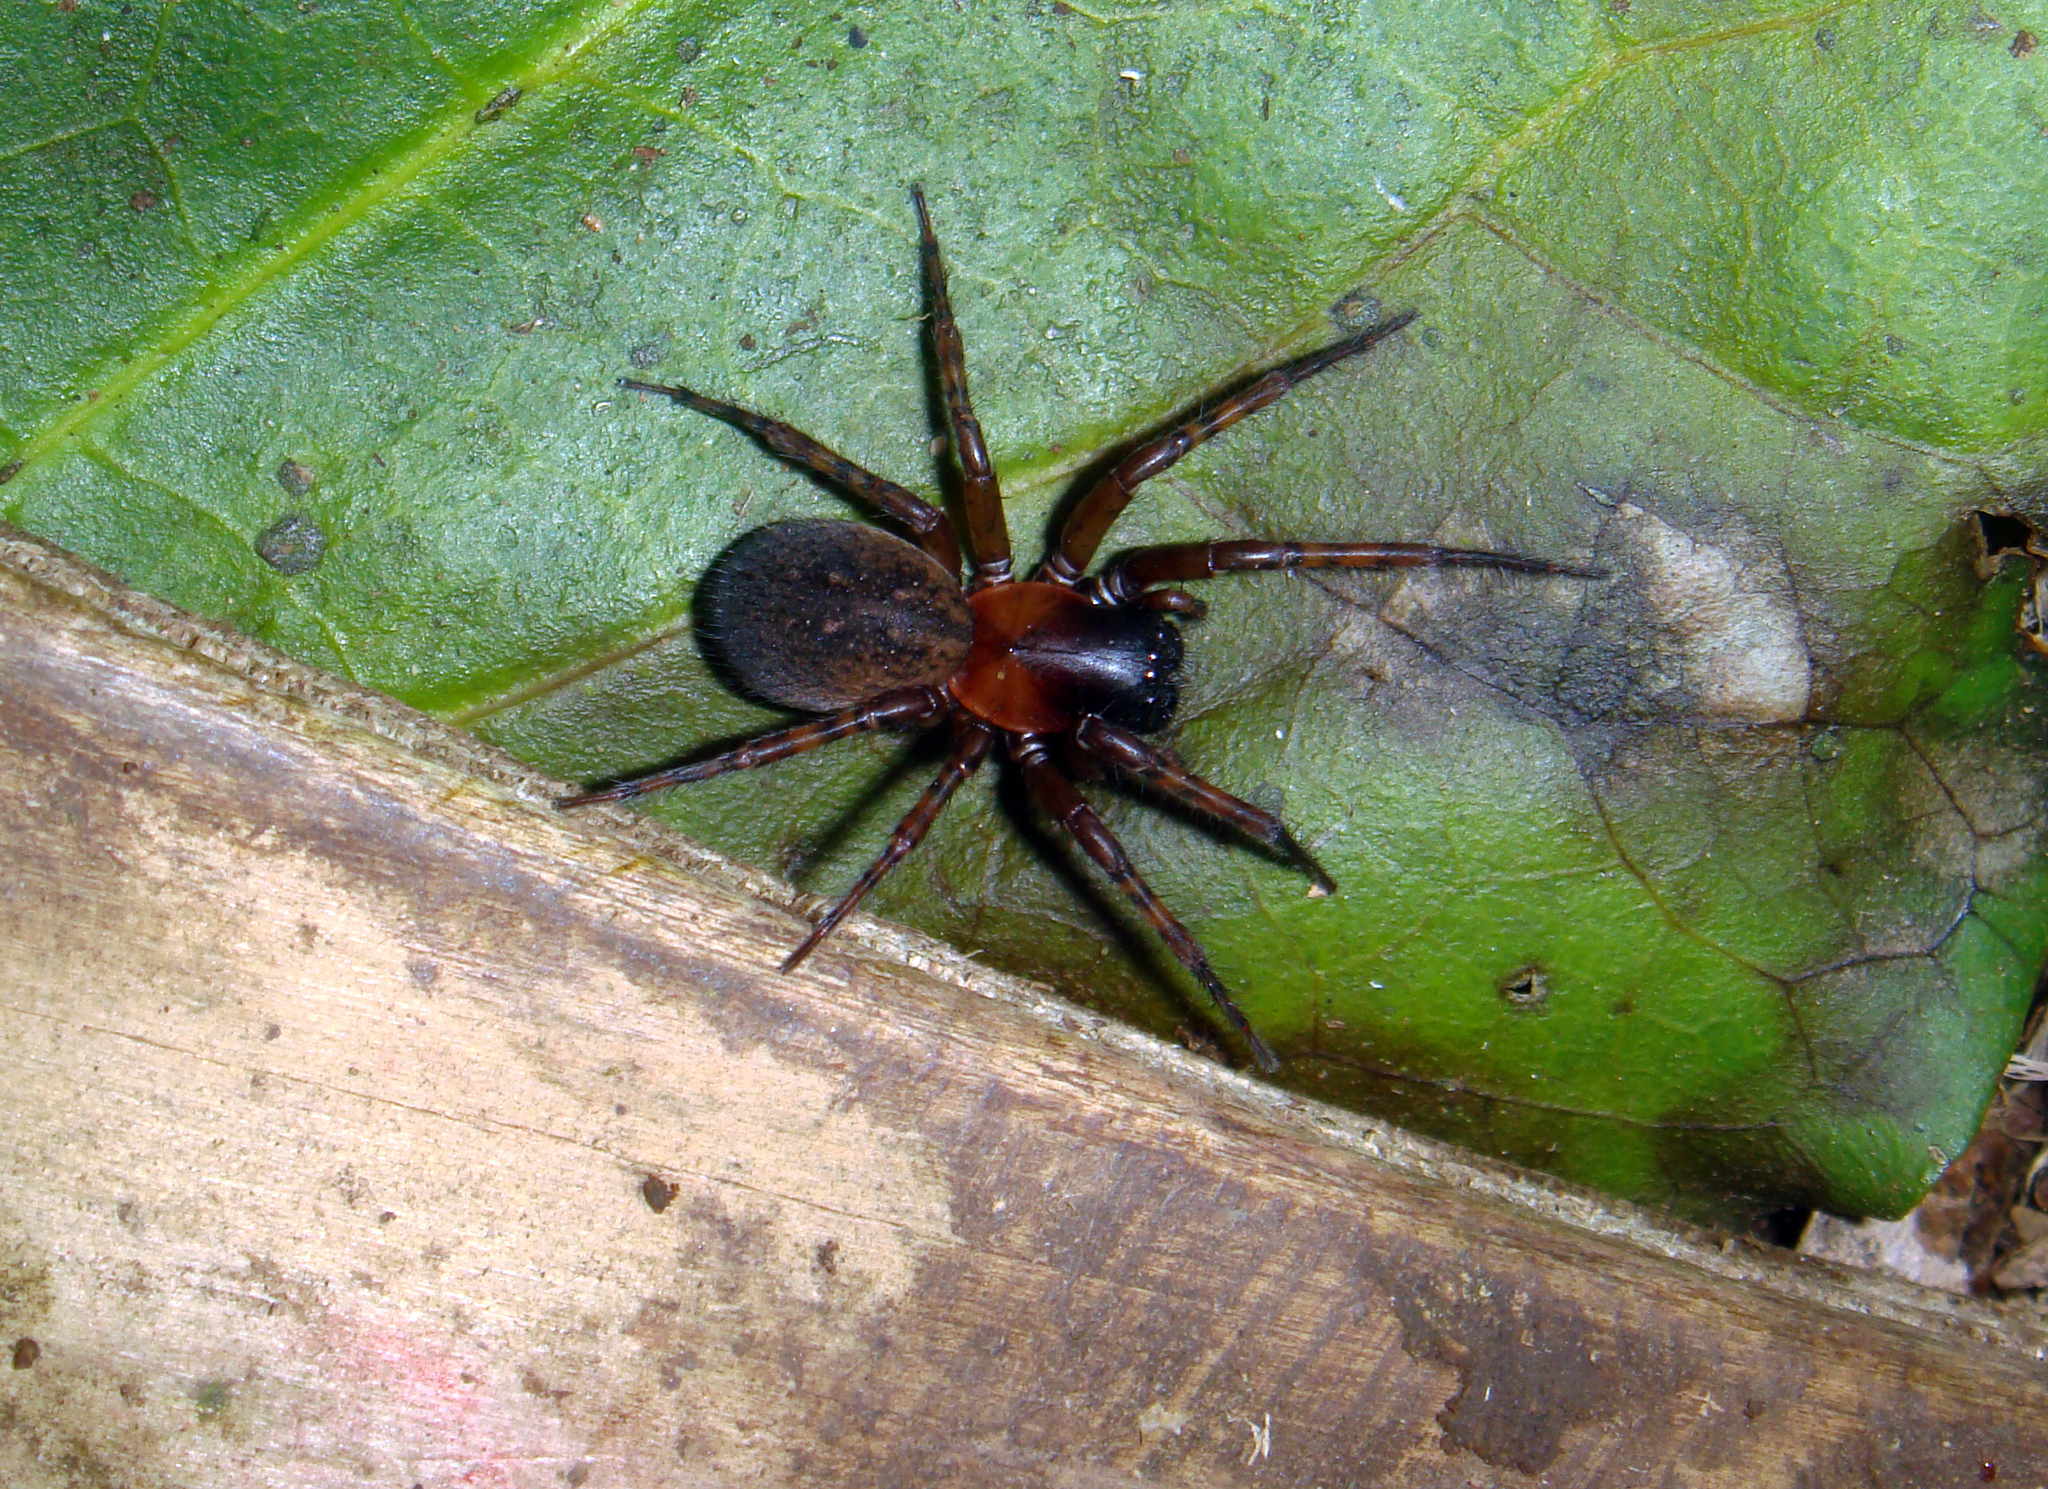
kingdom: Animalia
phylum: Arthropoda
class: Arachnida
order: Araneae
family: Agelenidae
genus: Oramia
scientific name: Oramia chathamensis
